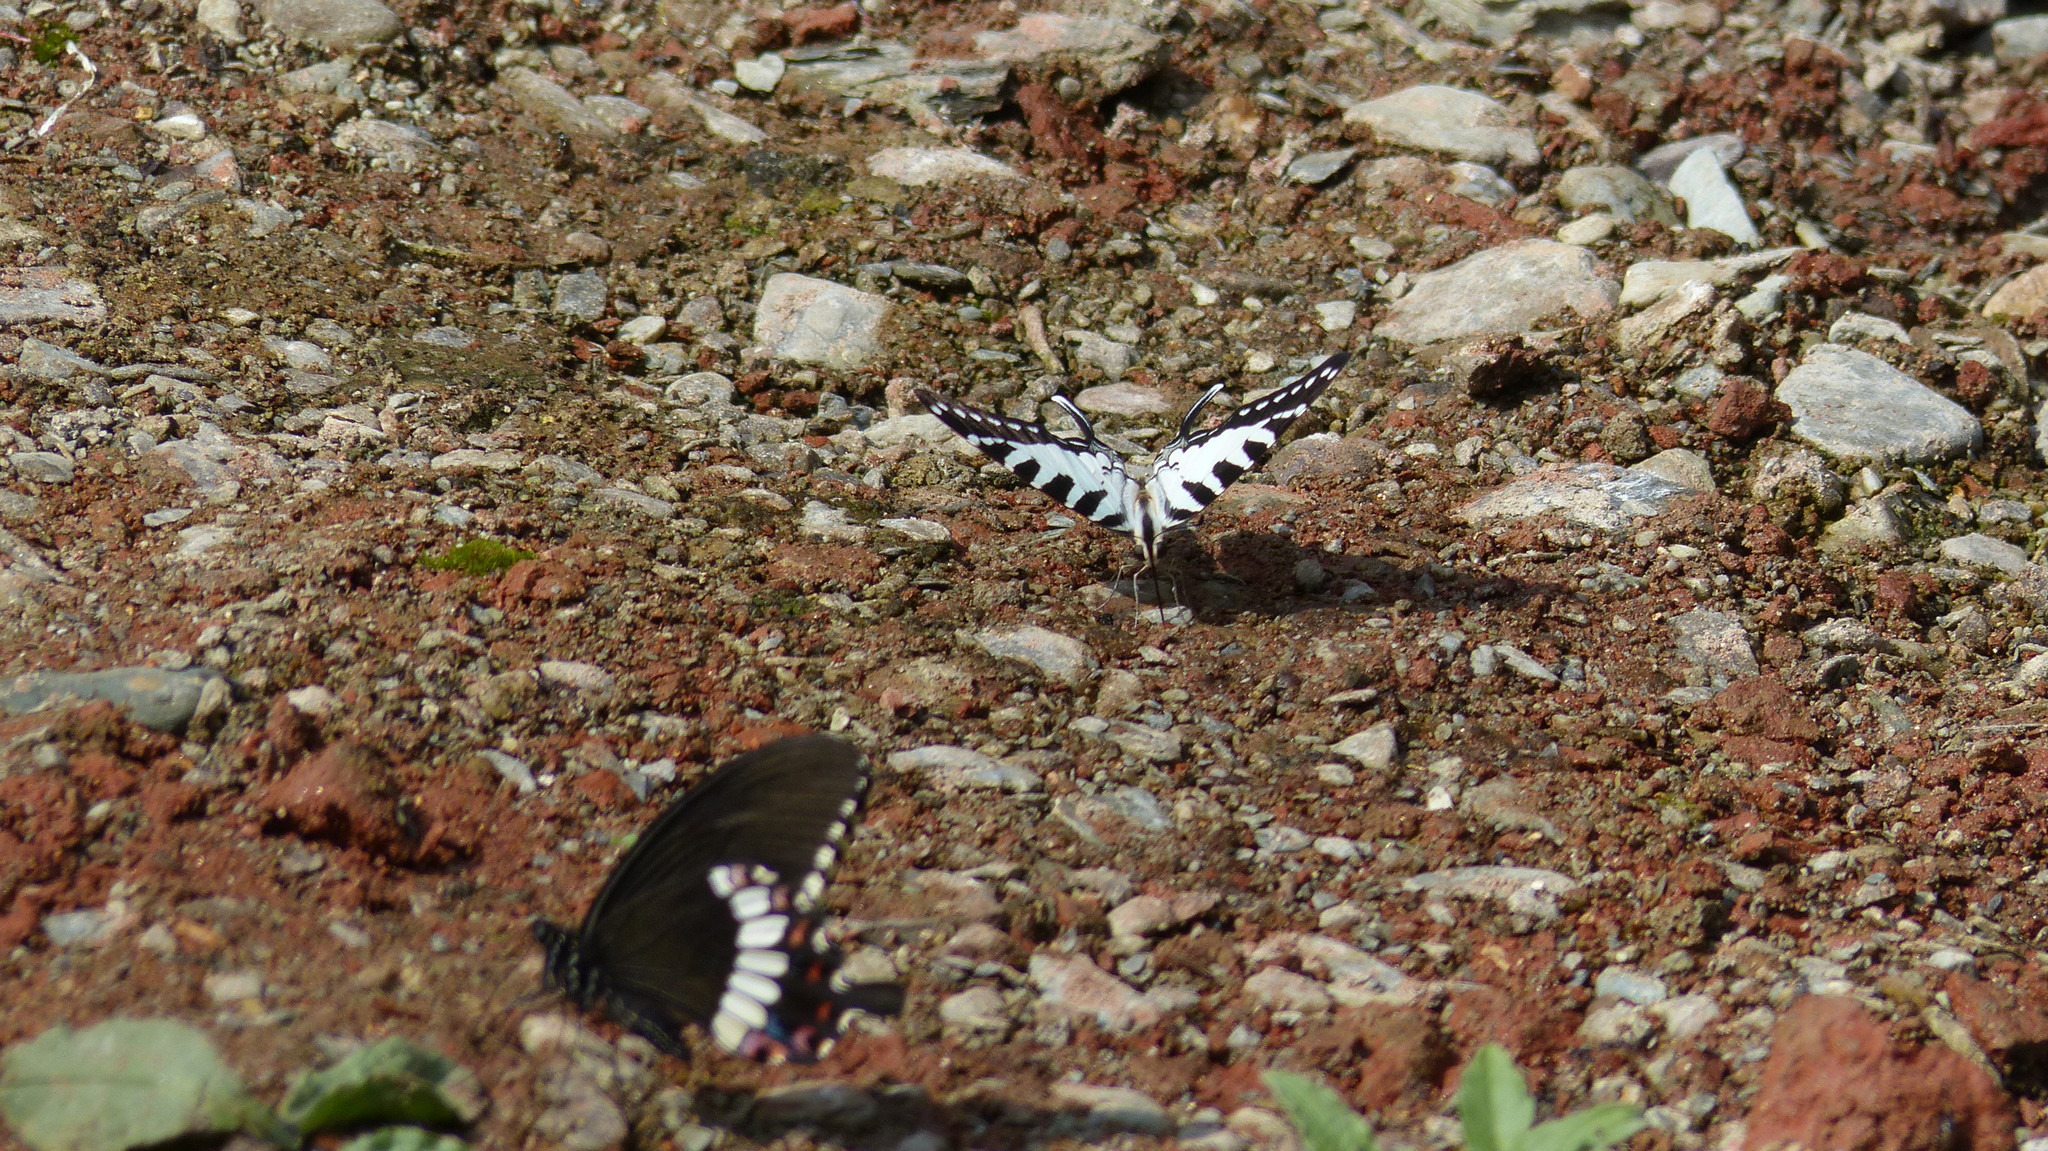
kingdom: Animalia
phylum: Arthropoda
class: Insecta
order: Lepidoptera
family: Papilionidae
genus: Graphium
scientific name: Graphium nomius
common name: Spot swordtail
